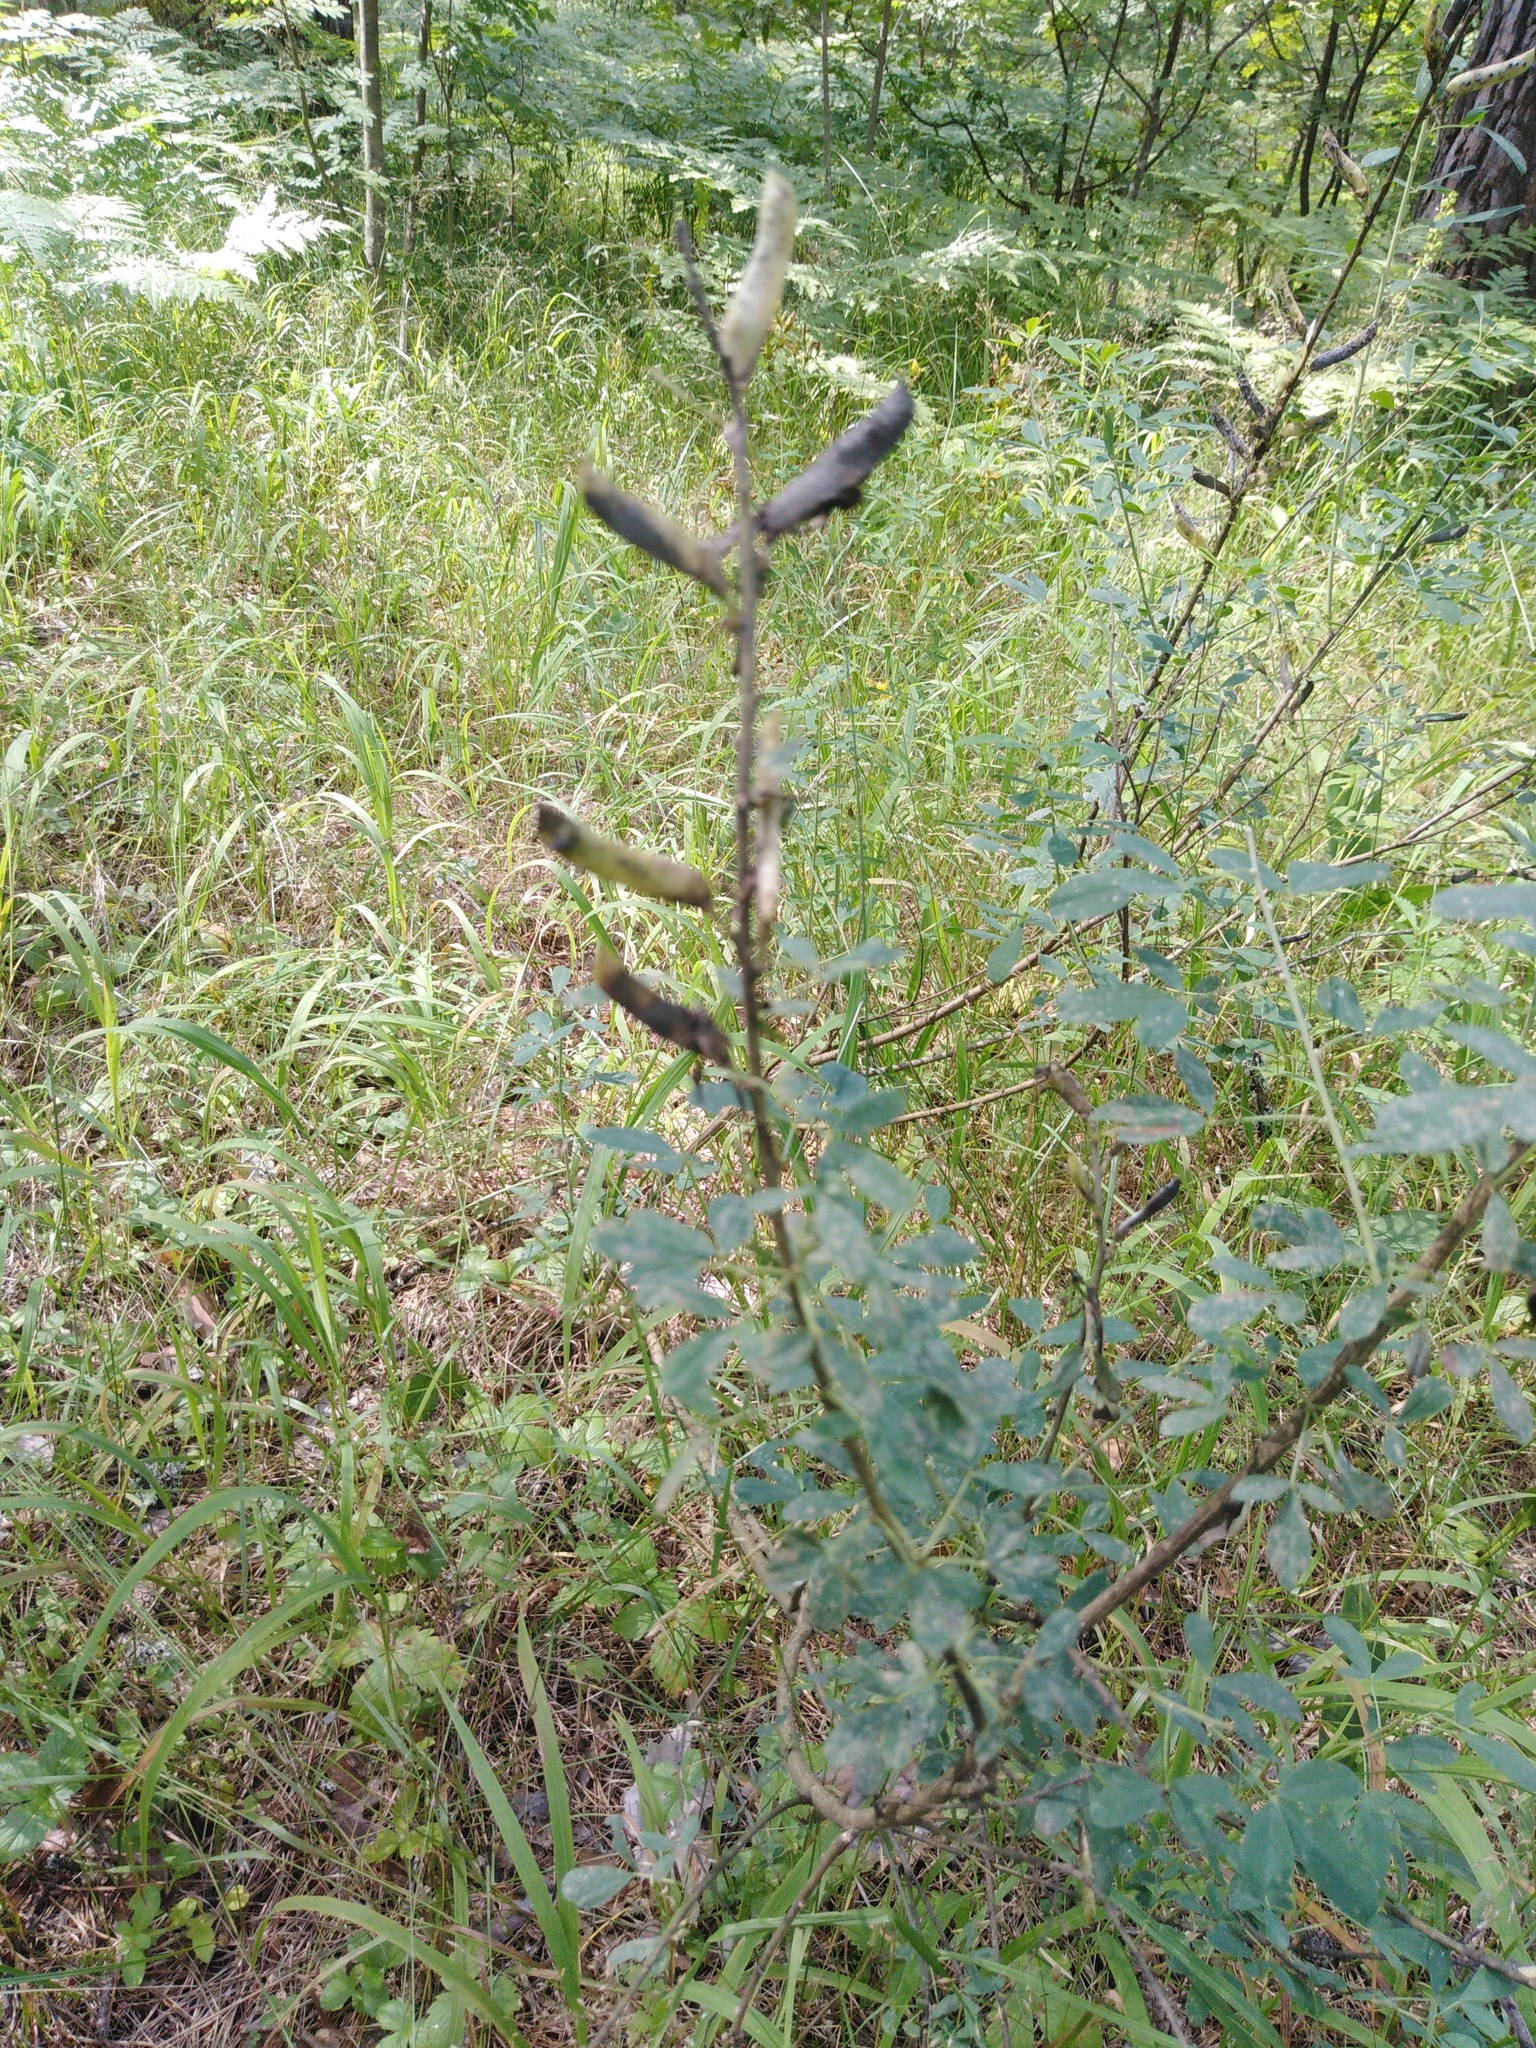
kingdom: Plantae
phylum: Tracheophyta
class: Magnoliopsida
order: Fabales
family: Fabaceae
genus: Chamaecytisus
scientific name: Chamaecytisus ruthenicus
